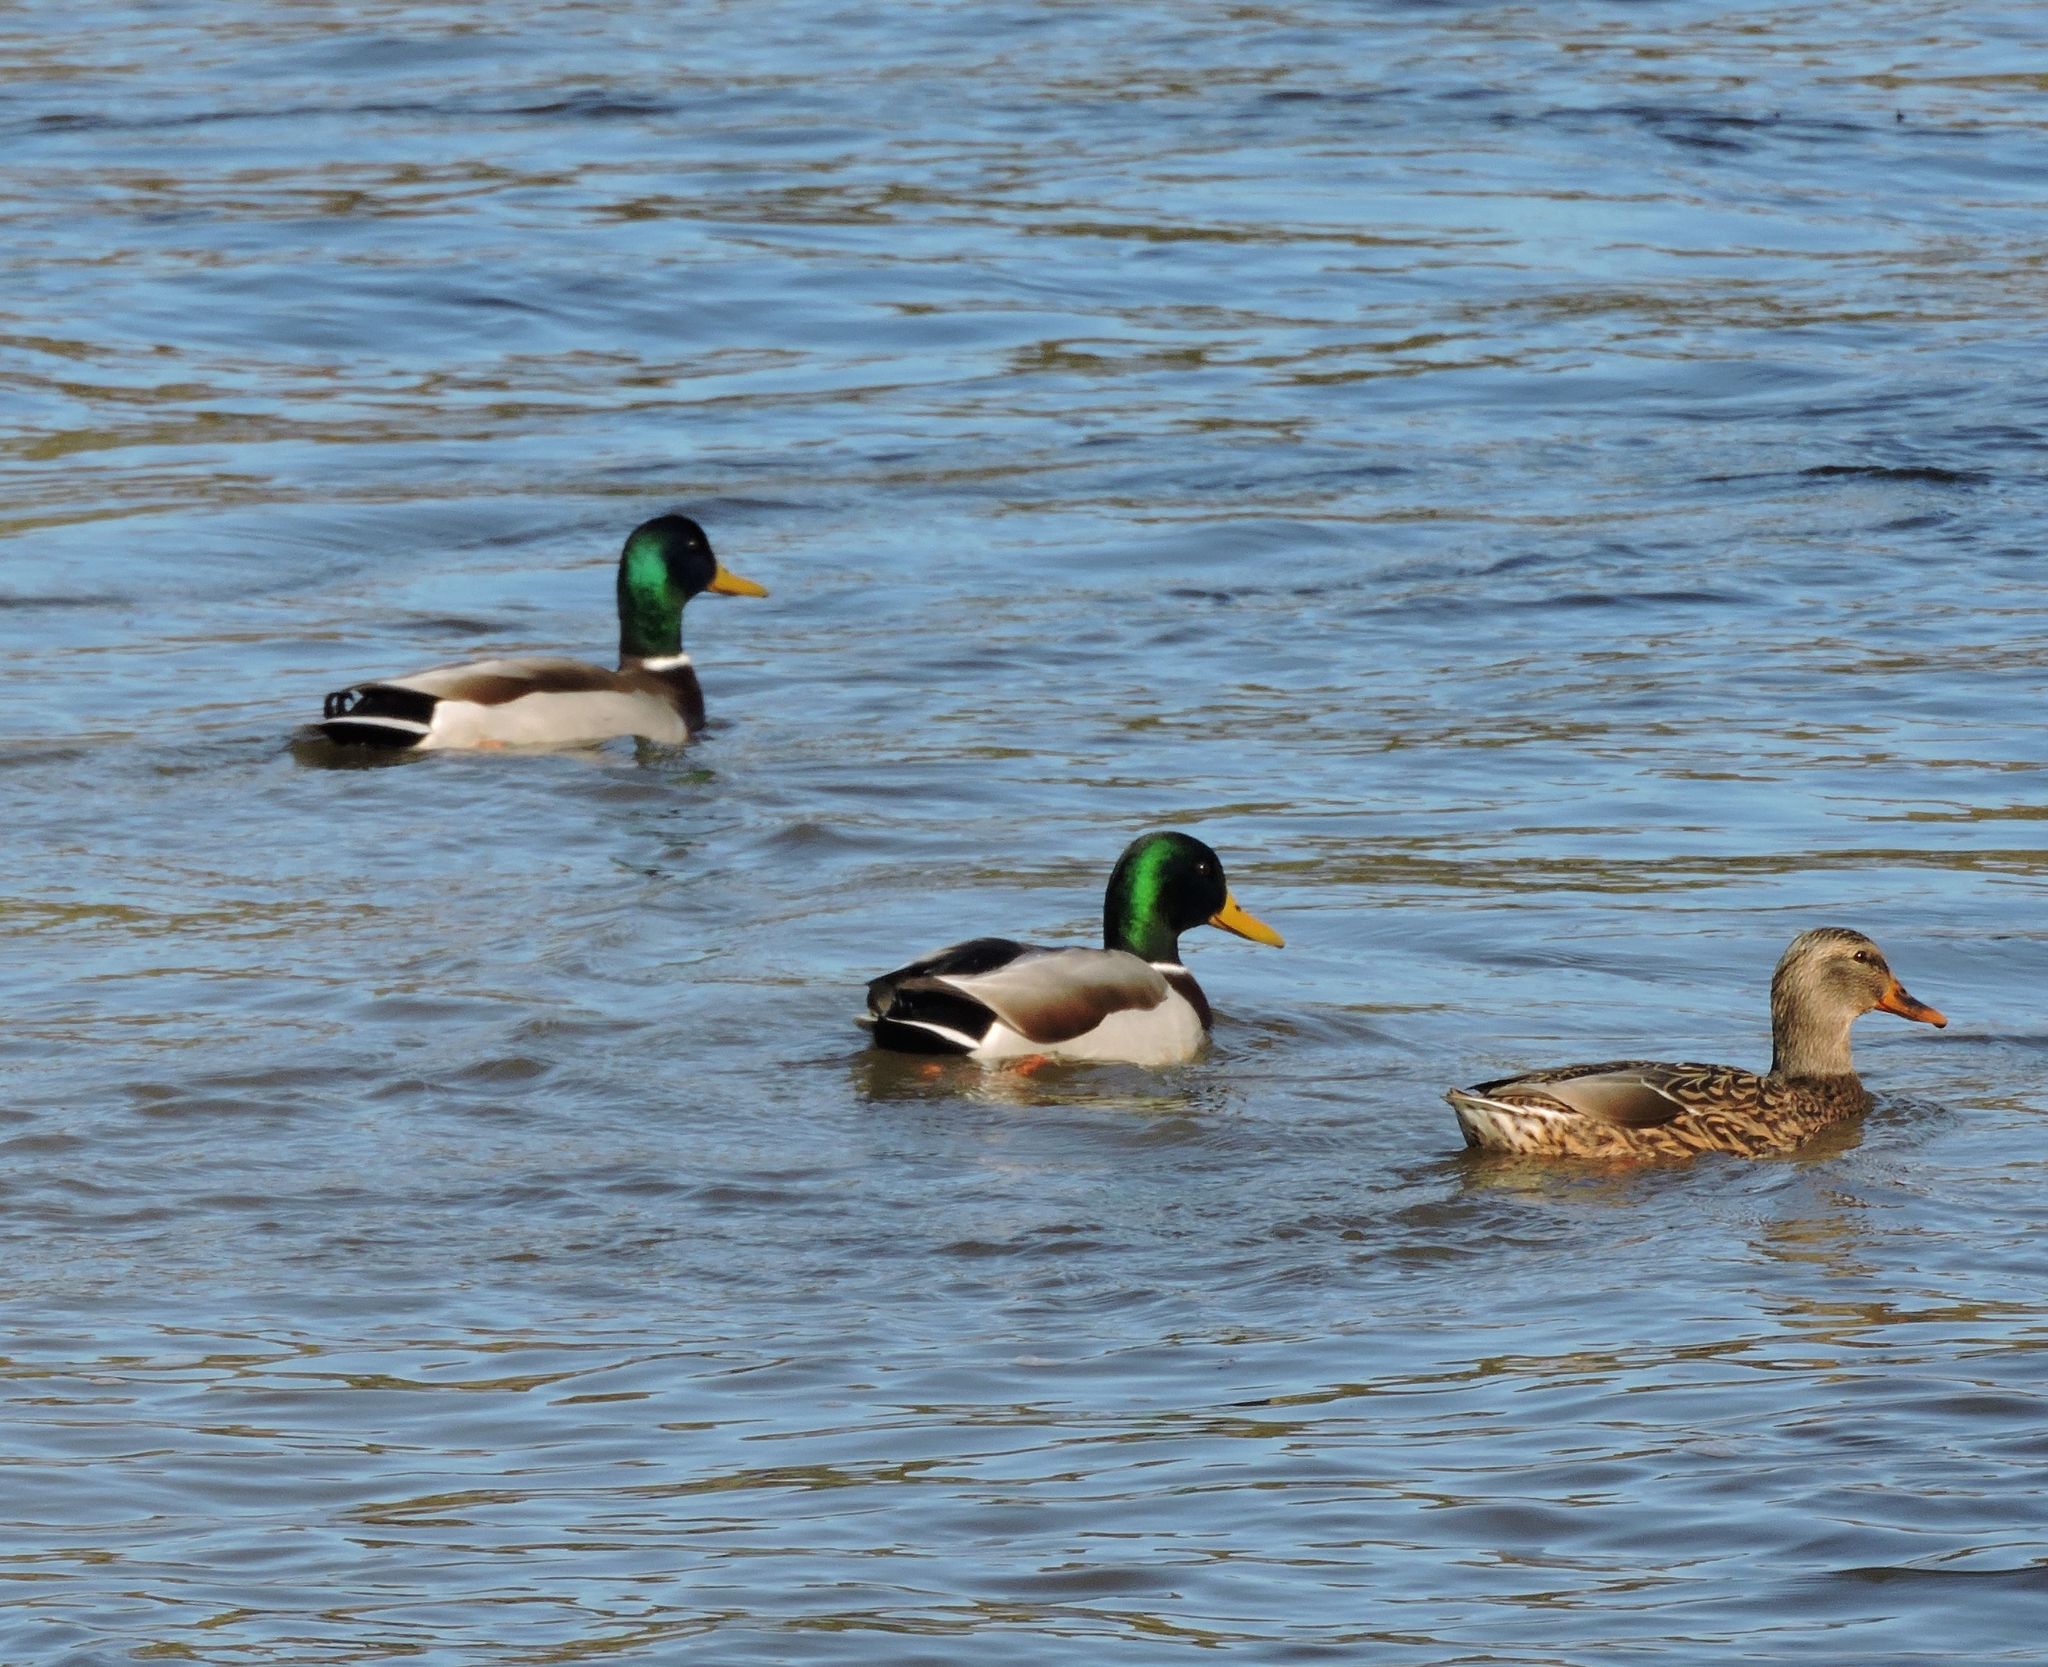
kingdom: Animalia
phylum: Chordata
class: Aves
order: Anseriformes
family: Anatidae
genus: Anas
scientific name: Anas platyrhynchos
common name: Mallard
